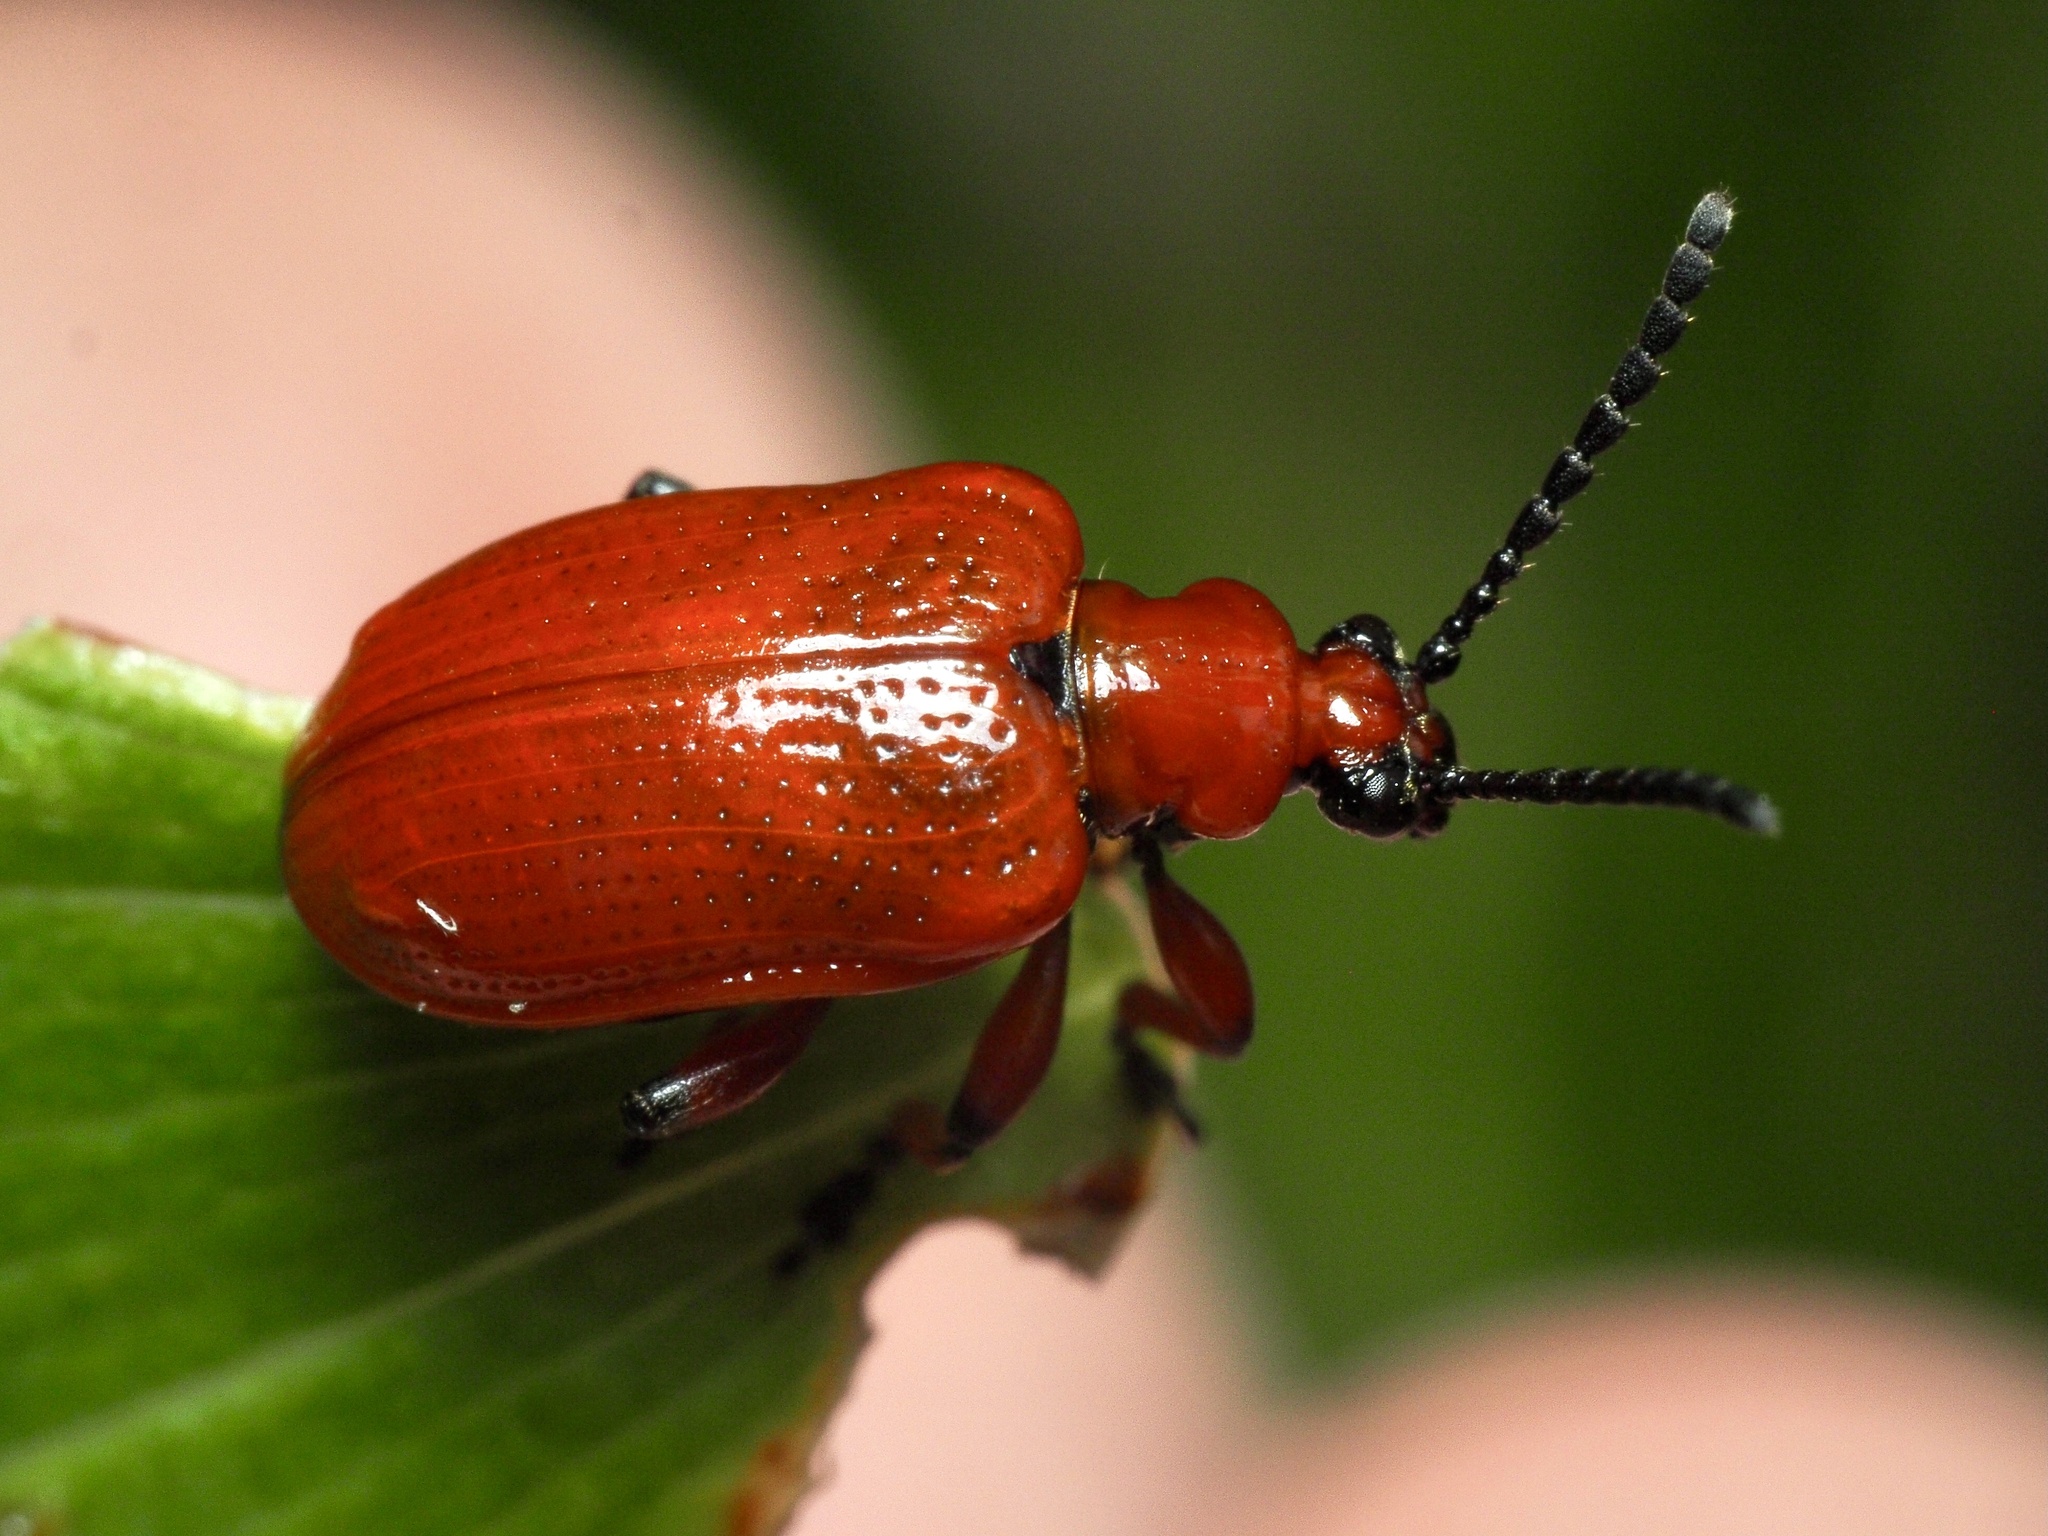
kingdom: Animalia
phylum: Arthropoda
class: Insecta
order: Coleoptera
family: Chrysomelidae
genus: Lilioceris
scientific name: Lilioceris merdigera
